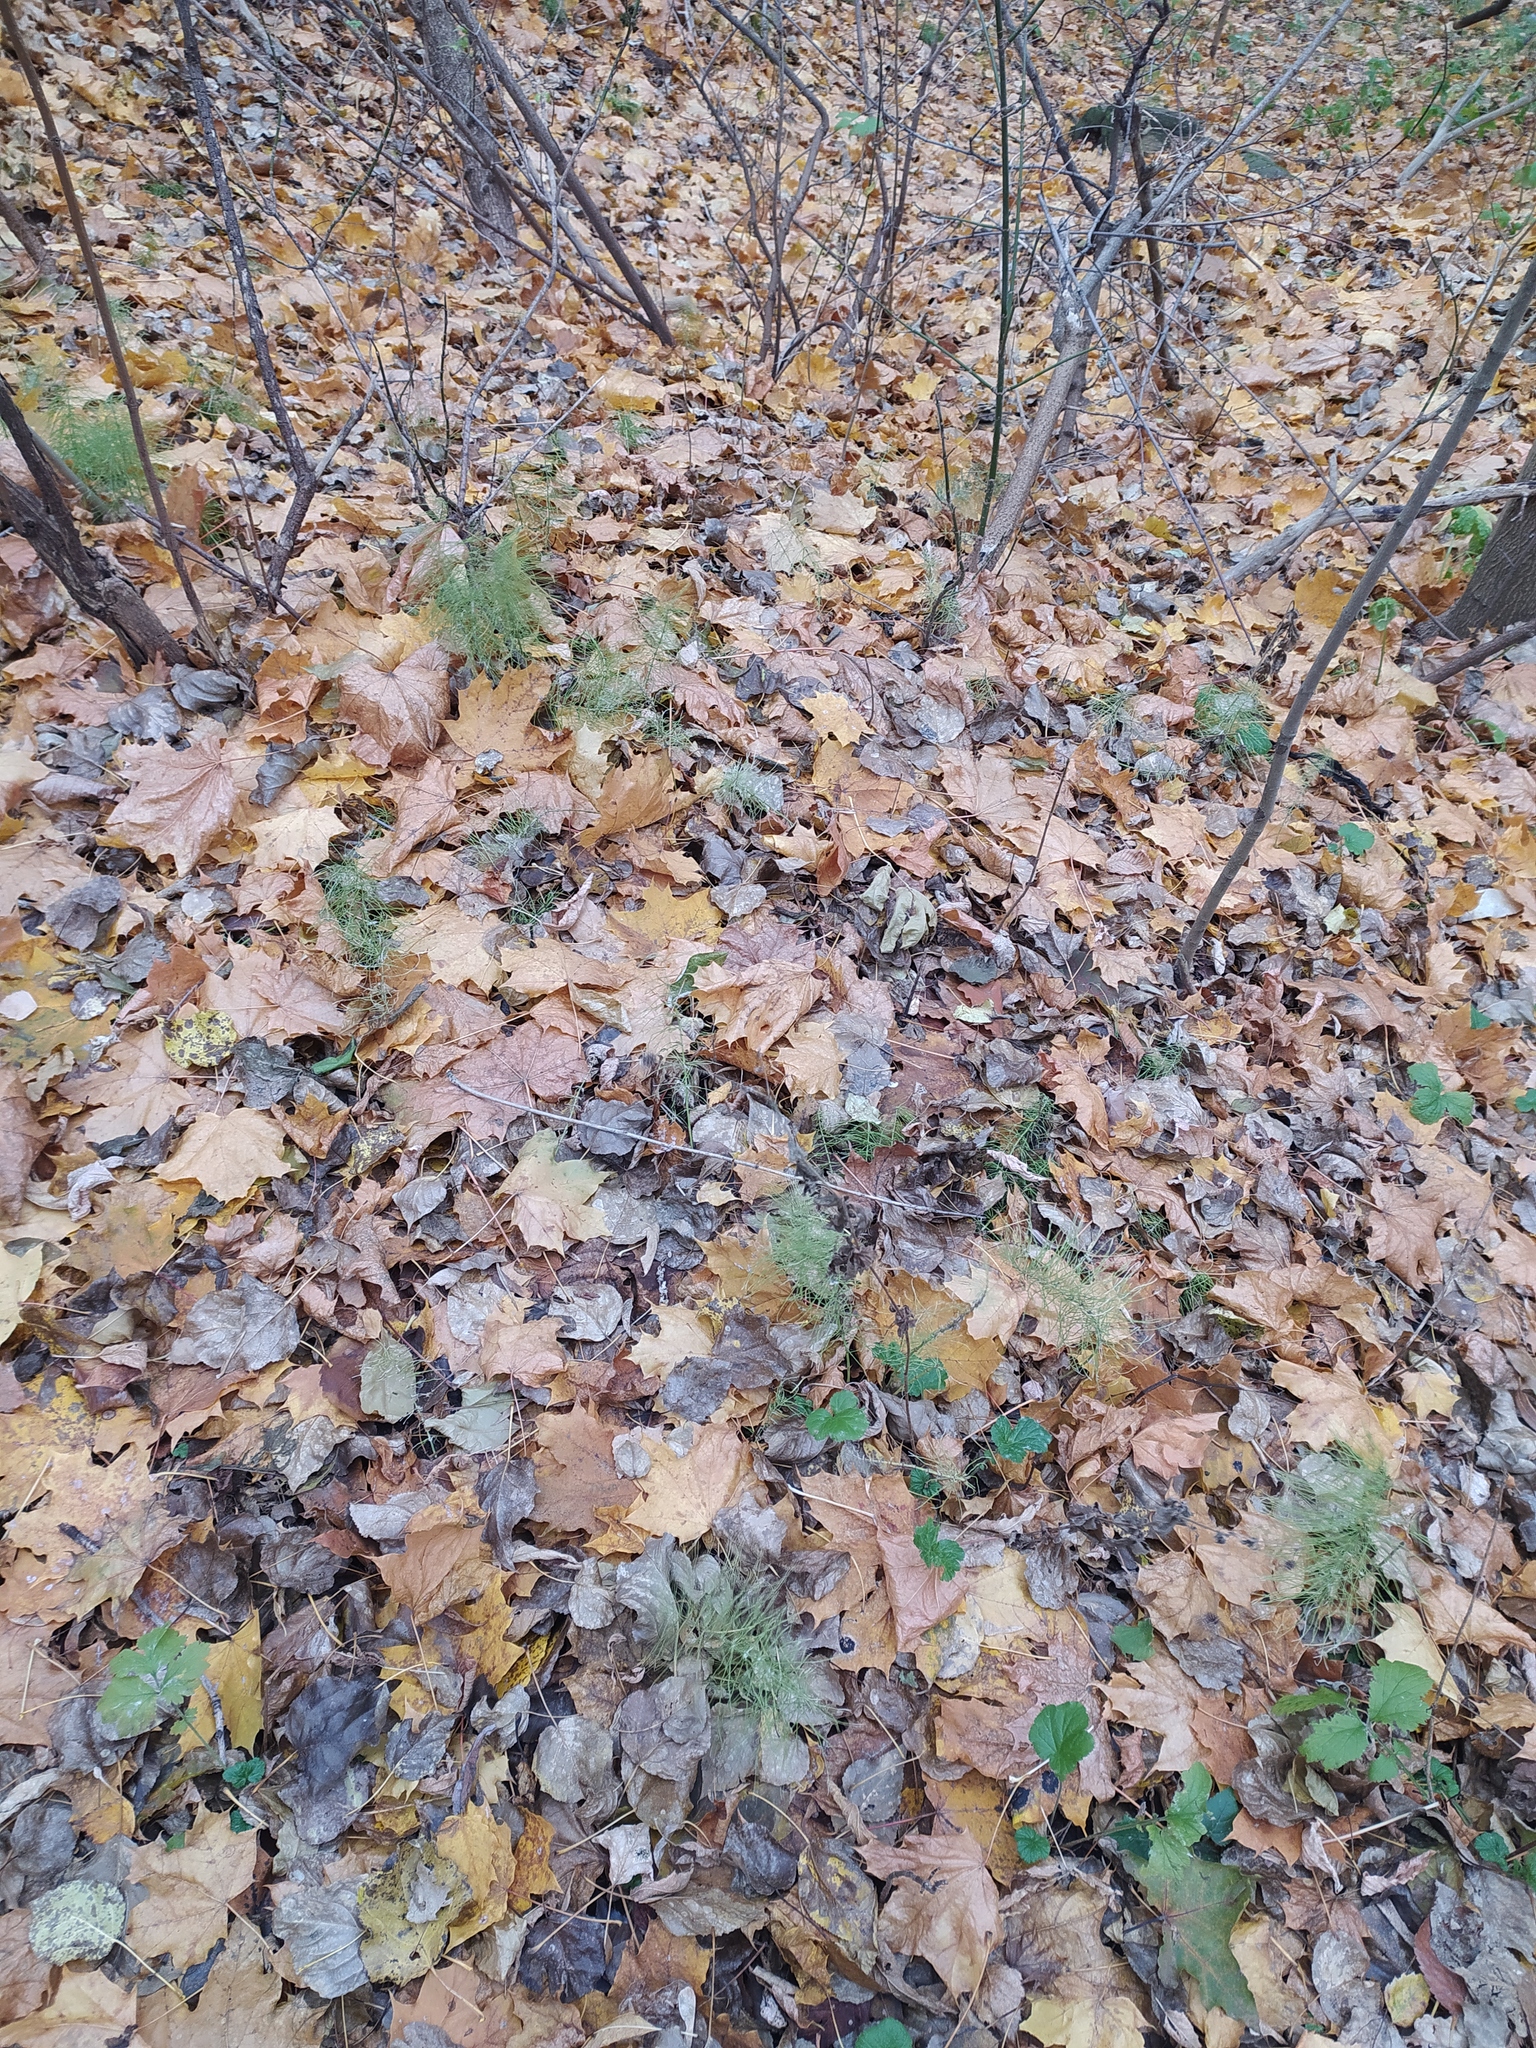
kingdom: Plantae
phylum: Tracheophyta
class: Polypodiopsida
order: Equisetales
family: Equisetaceae
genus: Equisetum
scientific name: Equisetum pratense
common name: Meadow horsetail
